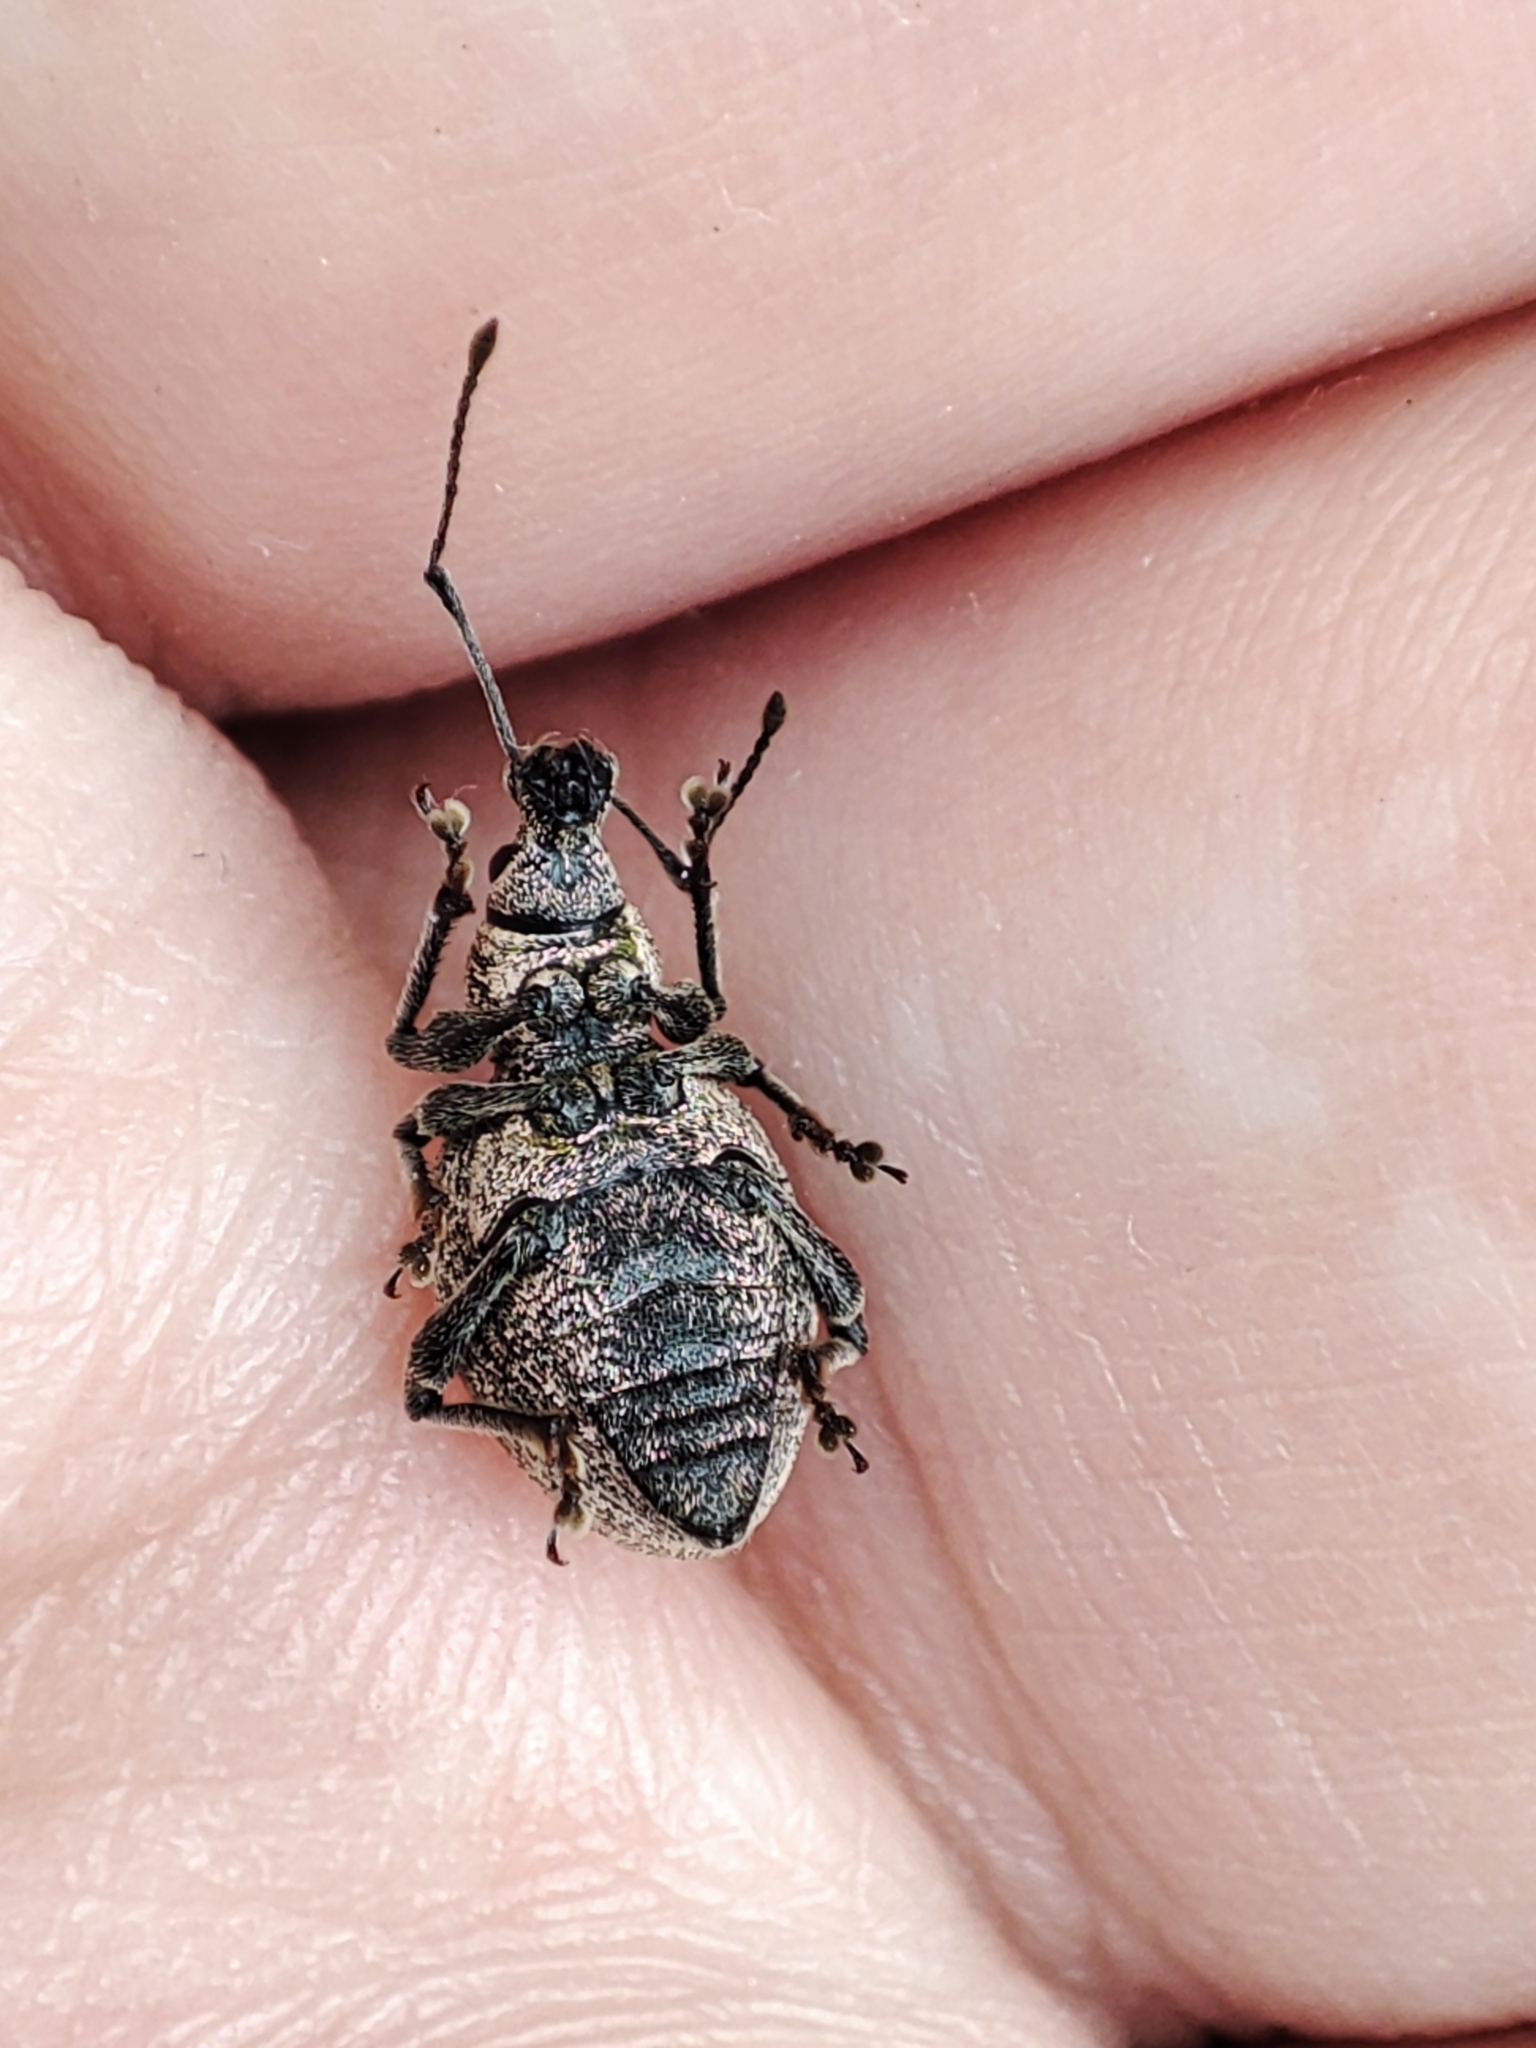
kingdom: Animalia
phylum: Arthropoda
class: Insecta
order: Coleoptera
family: Curculionidae
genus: Otiorhynchus
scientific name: Otiorhynchus aurosparsus
